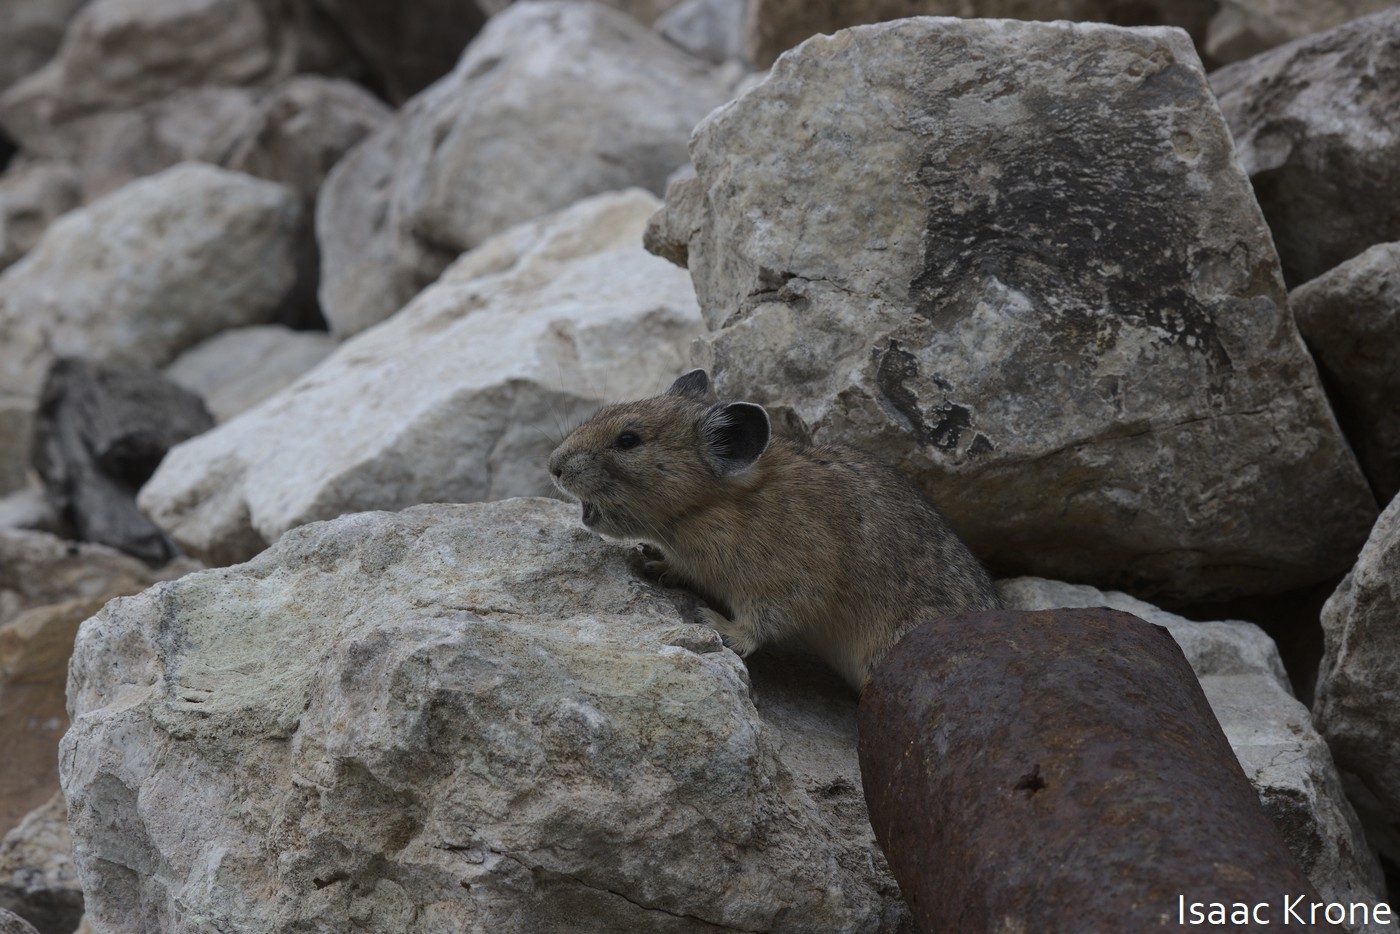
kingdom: Animalia
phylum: Chordata
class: Mammalia
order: Lagomorpha
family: Ochotonidae
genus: Ochotona
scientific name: Ochotona princeps
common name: American pika
